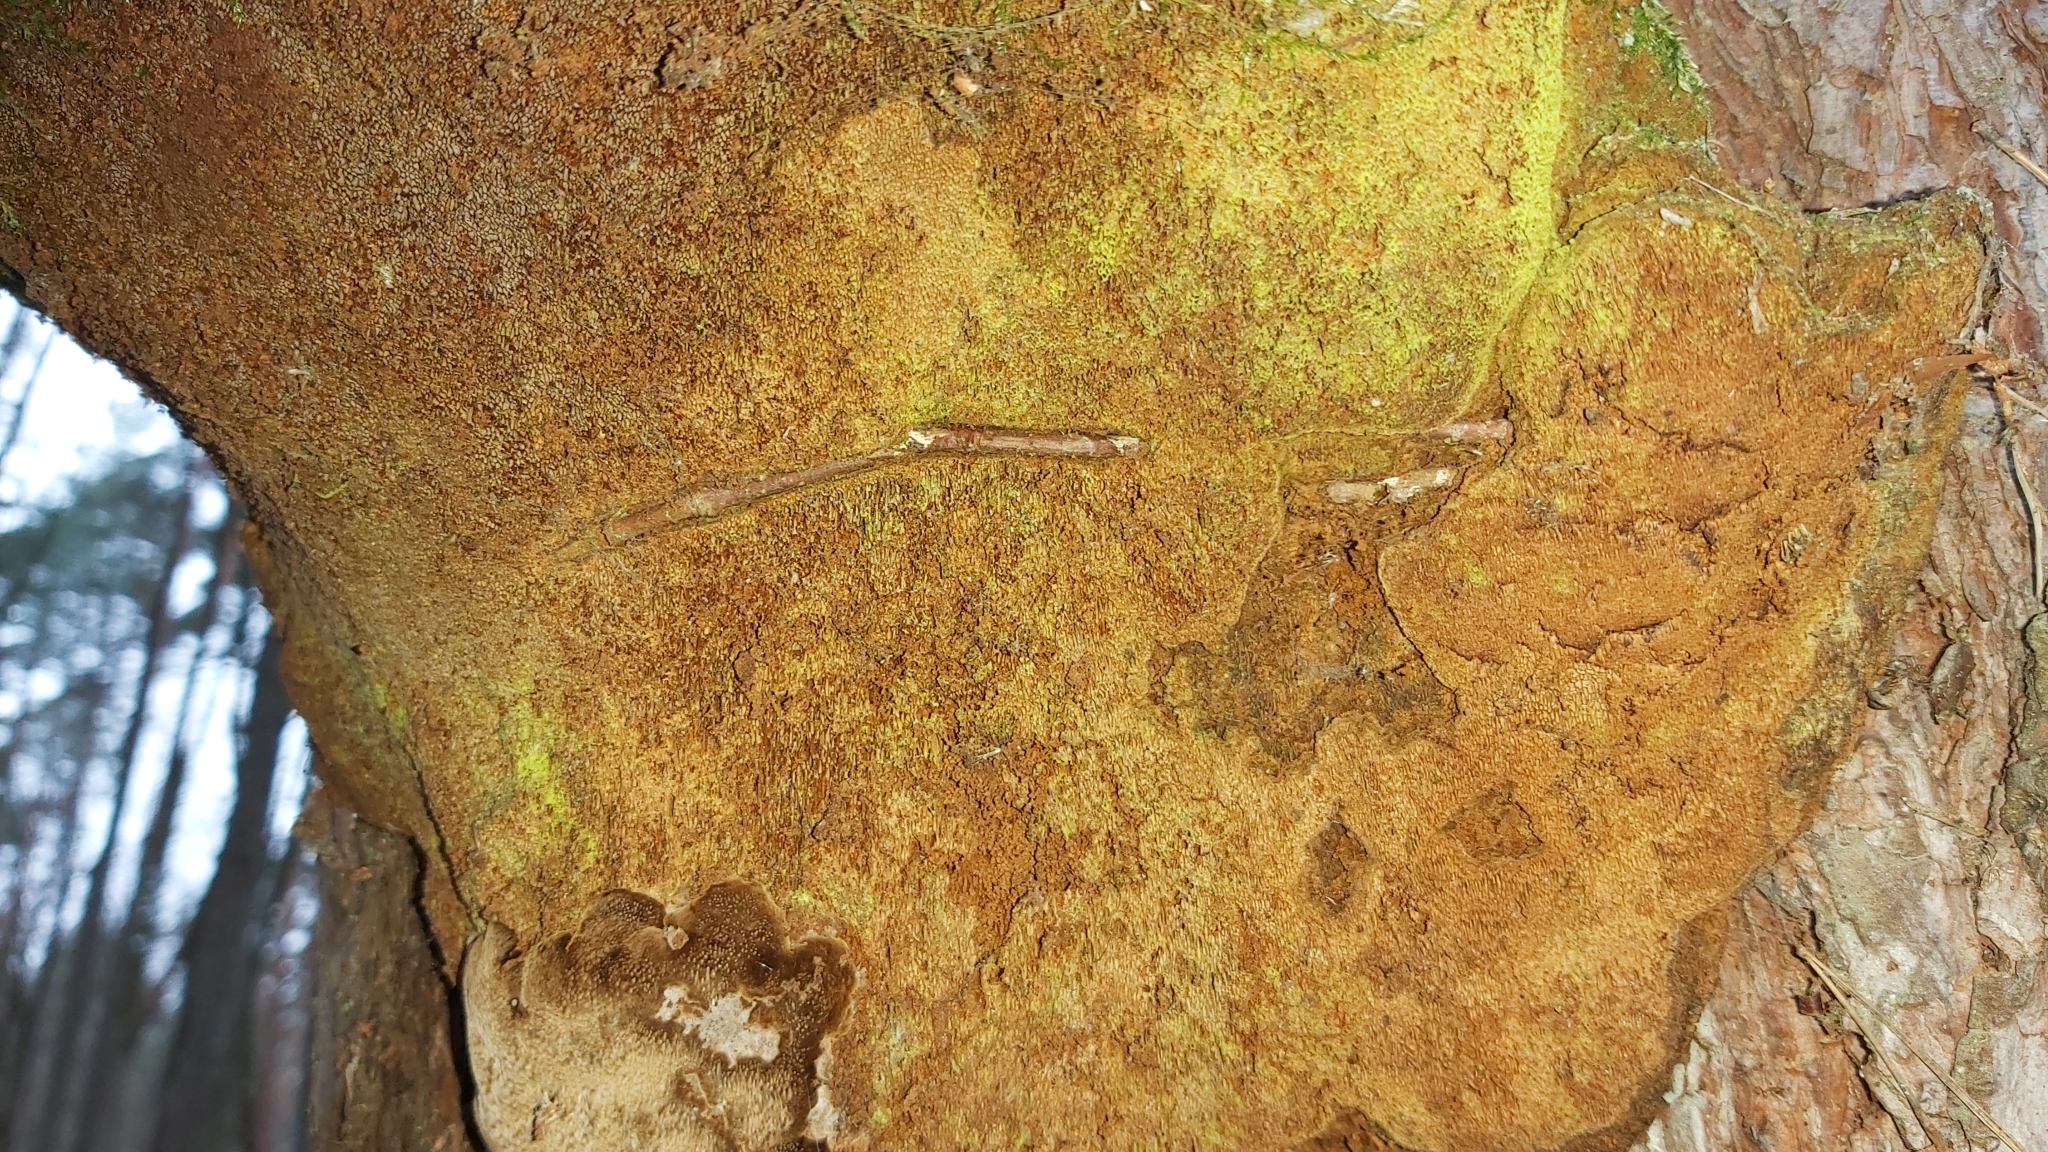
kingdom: Fungi
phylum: Basidiomycota
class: Agaricomycetes
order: Hymenochaetales
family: Hymenochaetaceae
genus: Porodaedalea
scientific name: Porodaedalea pini
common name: Pine bracket
